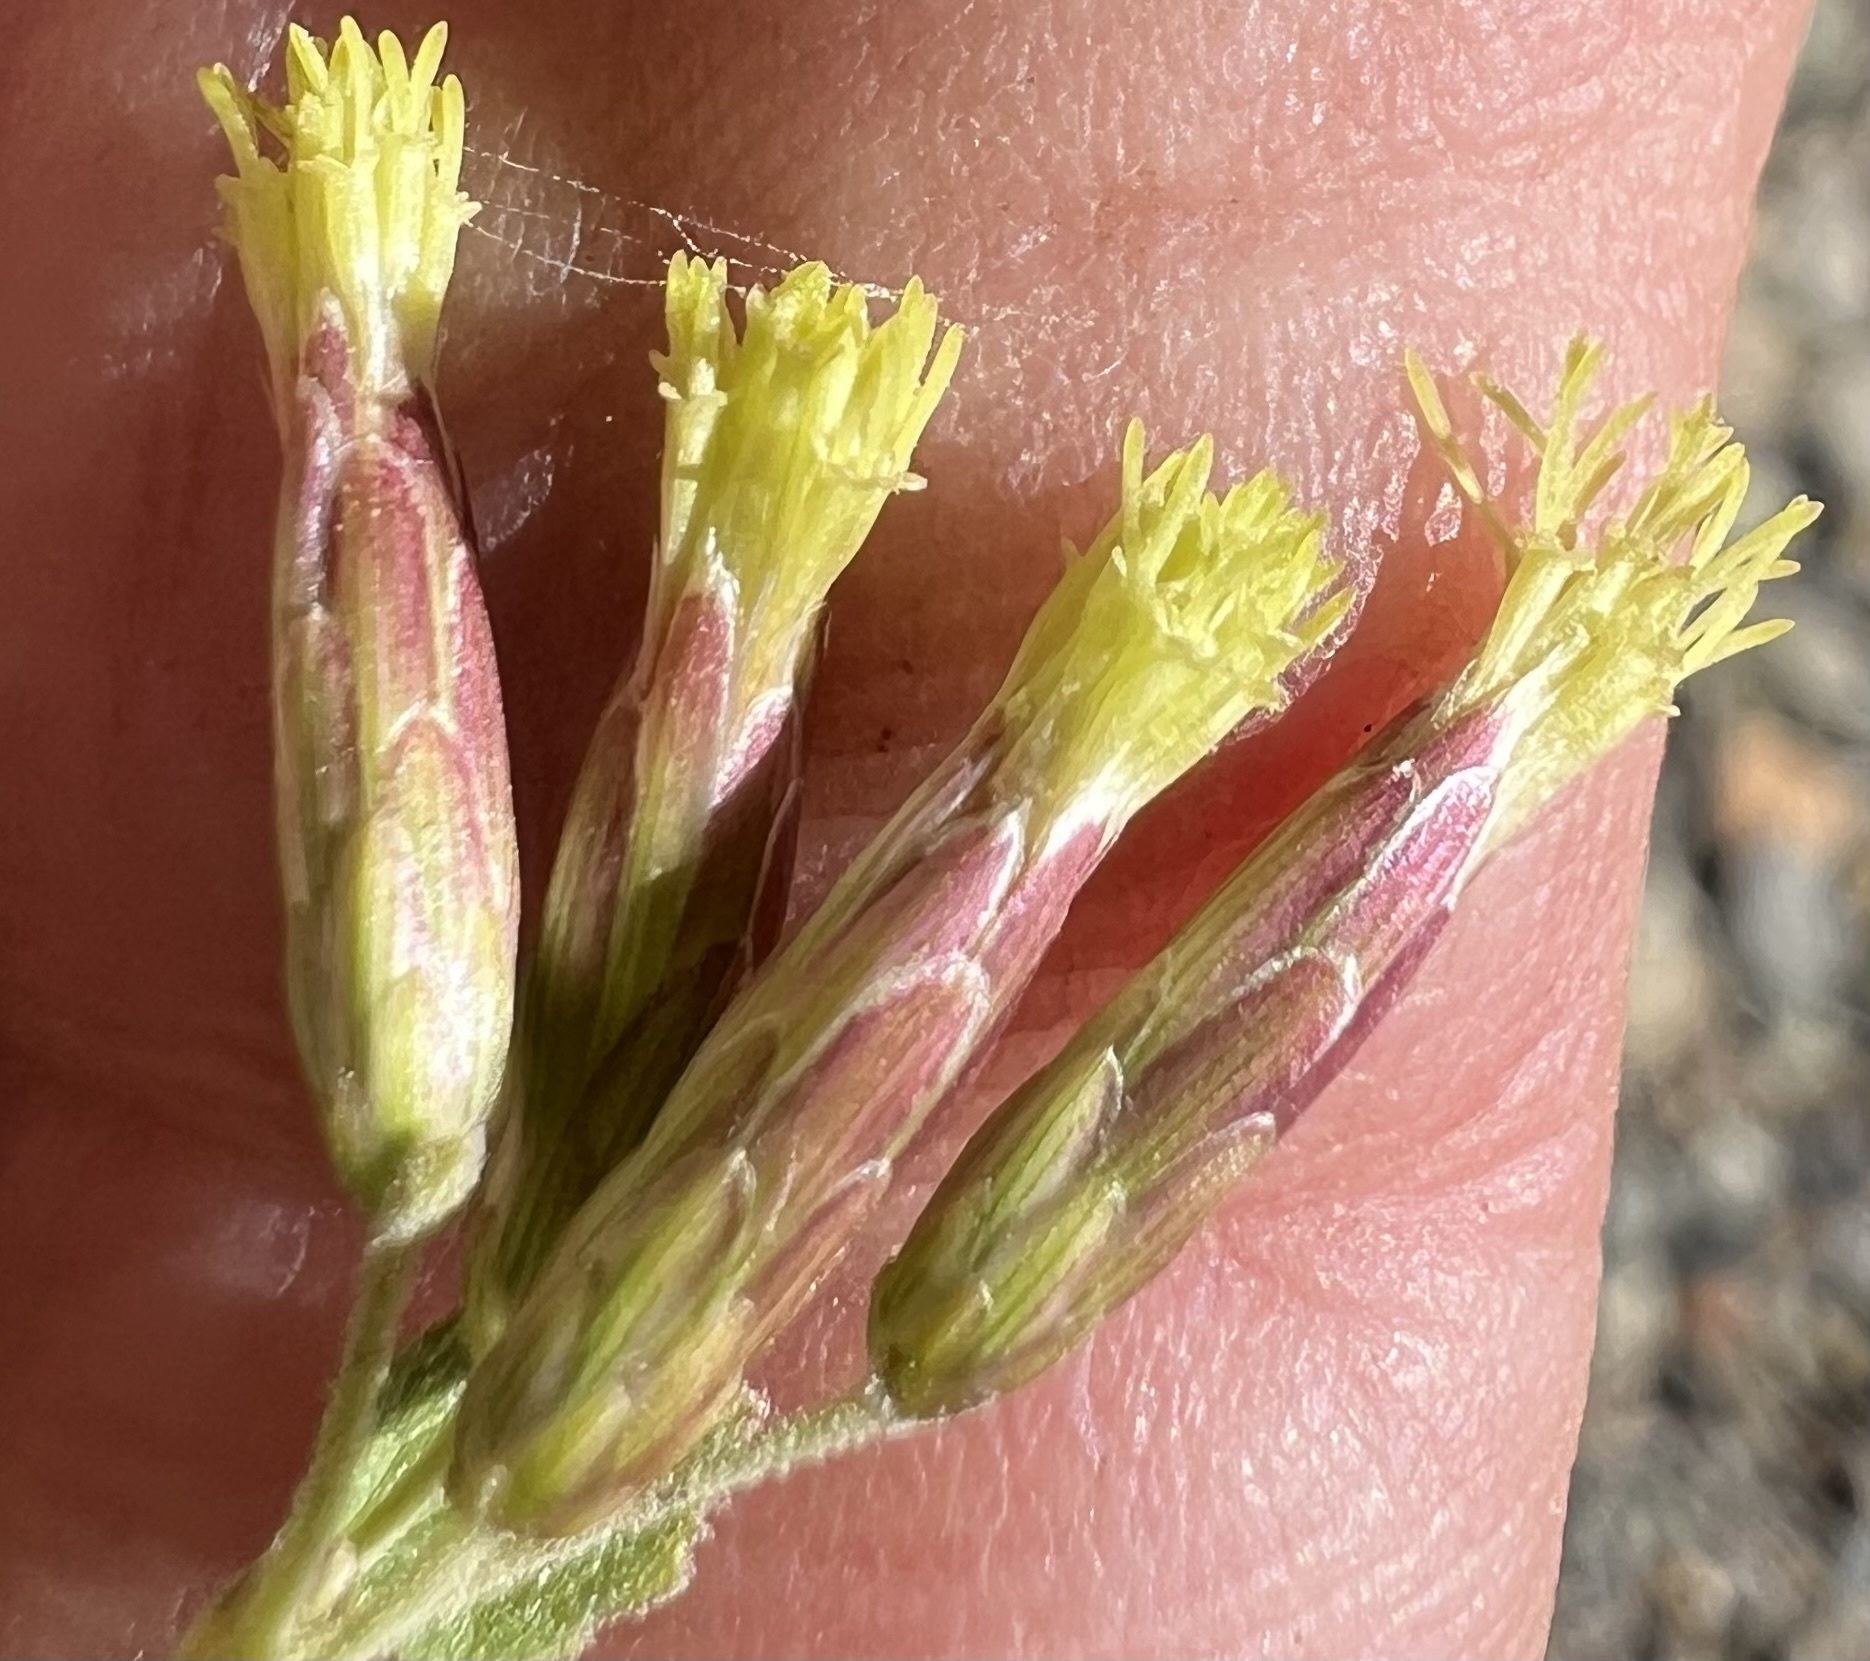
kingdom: Plantae
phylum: Tracheophyta
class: Magnoliopsida
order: Asterales
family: Asteraceae
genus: Brickellia
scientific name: Brickellia californica
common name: California brickellbush
